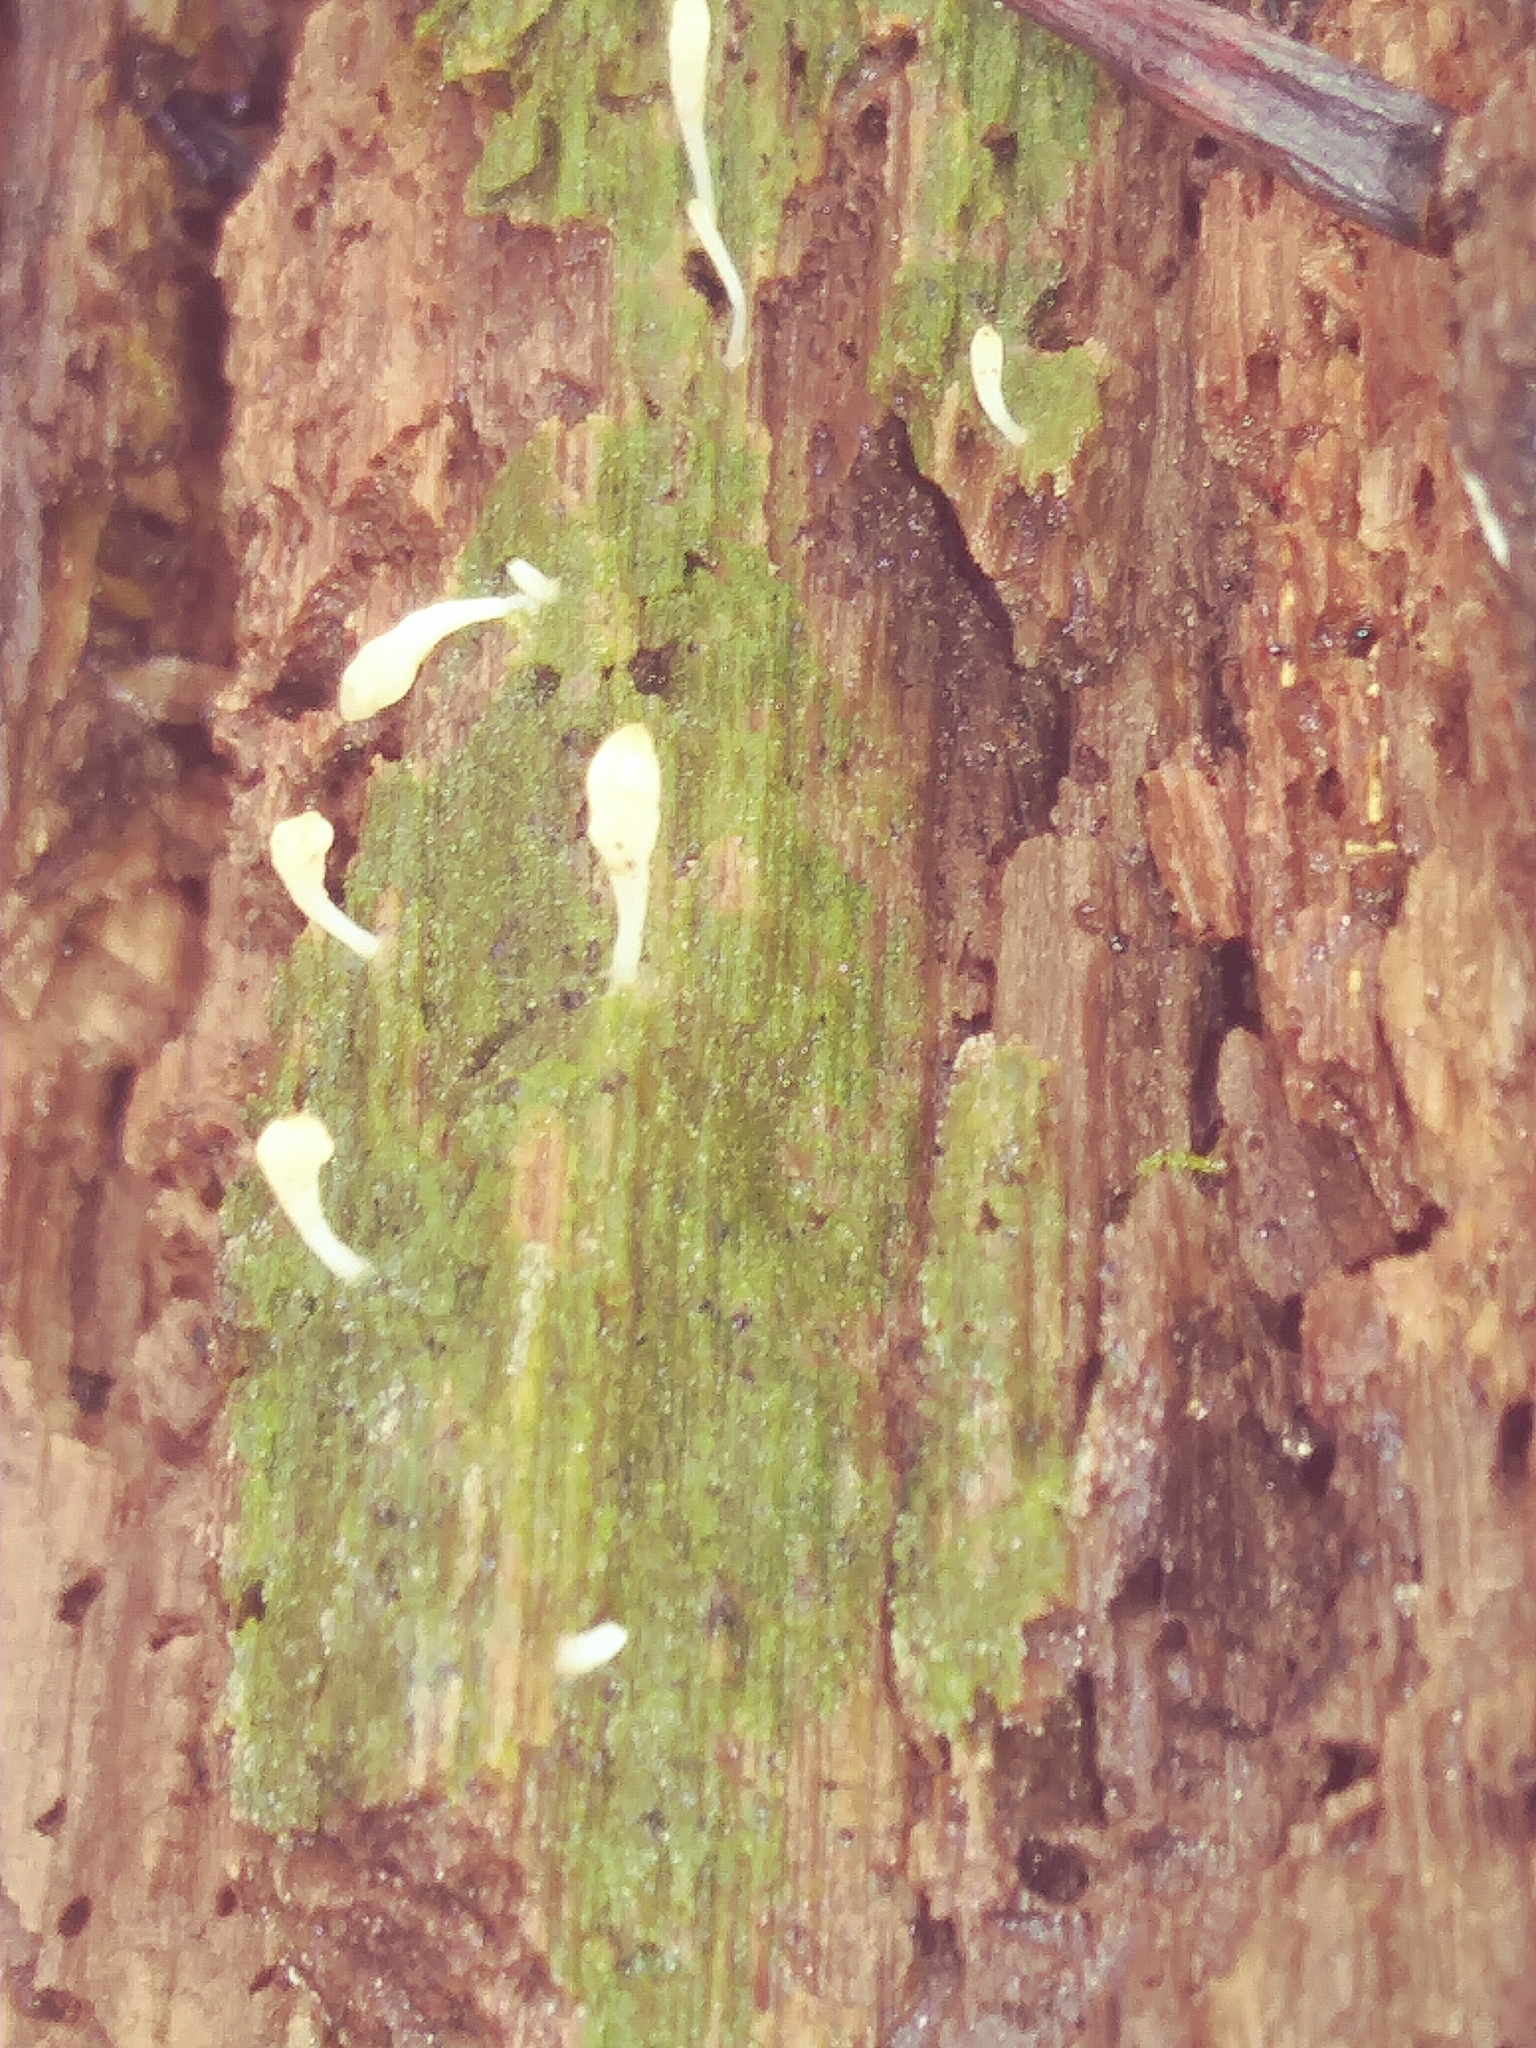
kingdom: Fungi
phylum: Basidiomycota
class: Agaricomycetes
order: Cantharellales
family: Hydnaceae
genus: Multiclavula
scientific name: Multiclavula mucida
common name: White green-algae coral
